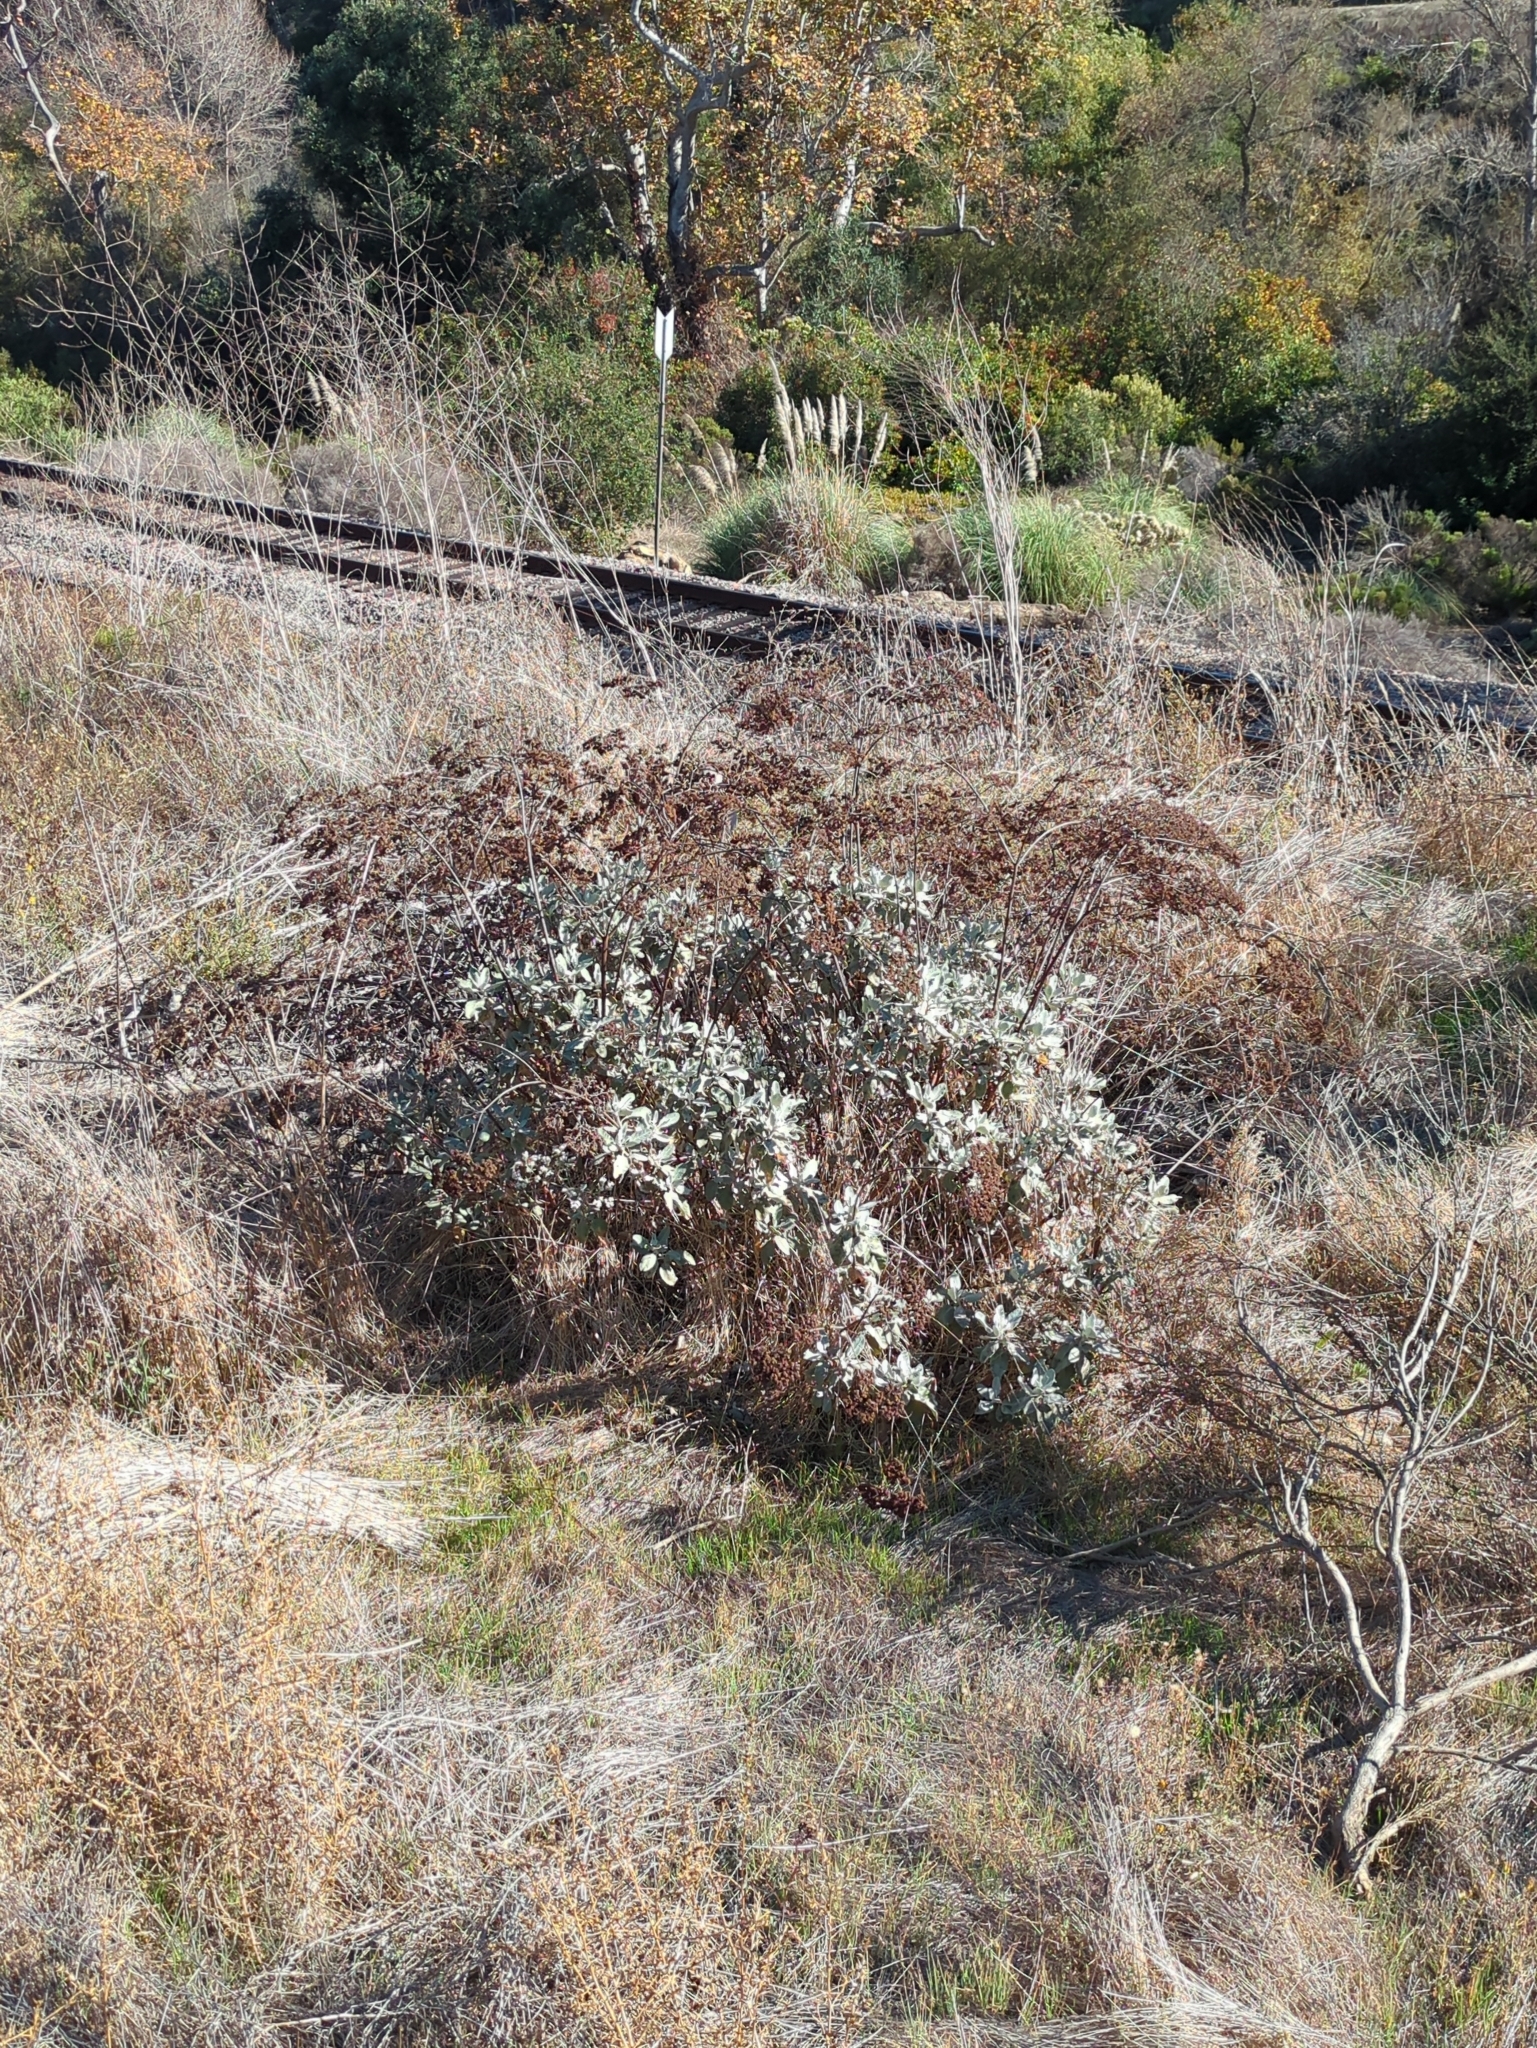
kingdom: Plantae
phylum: Tracheophyta
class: Magnoliopsida
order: Caryophyllales
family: Polygonaceae
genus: Eriogonum
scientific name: Eriogonum giganteum
